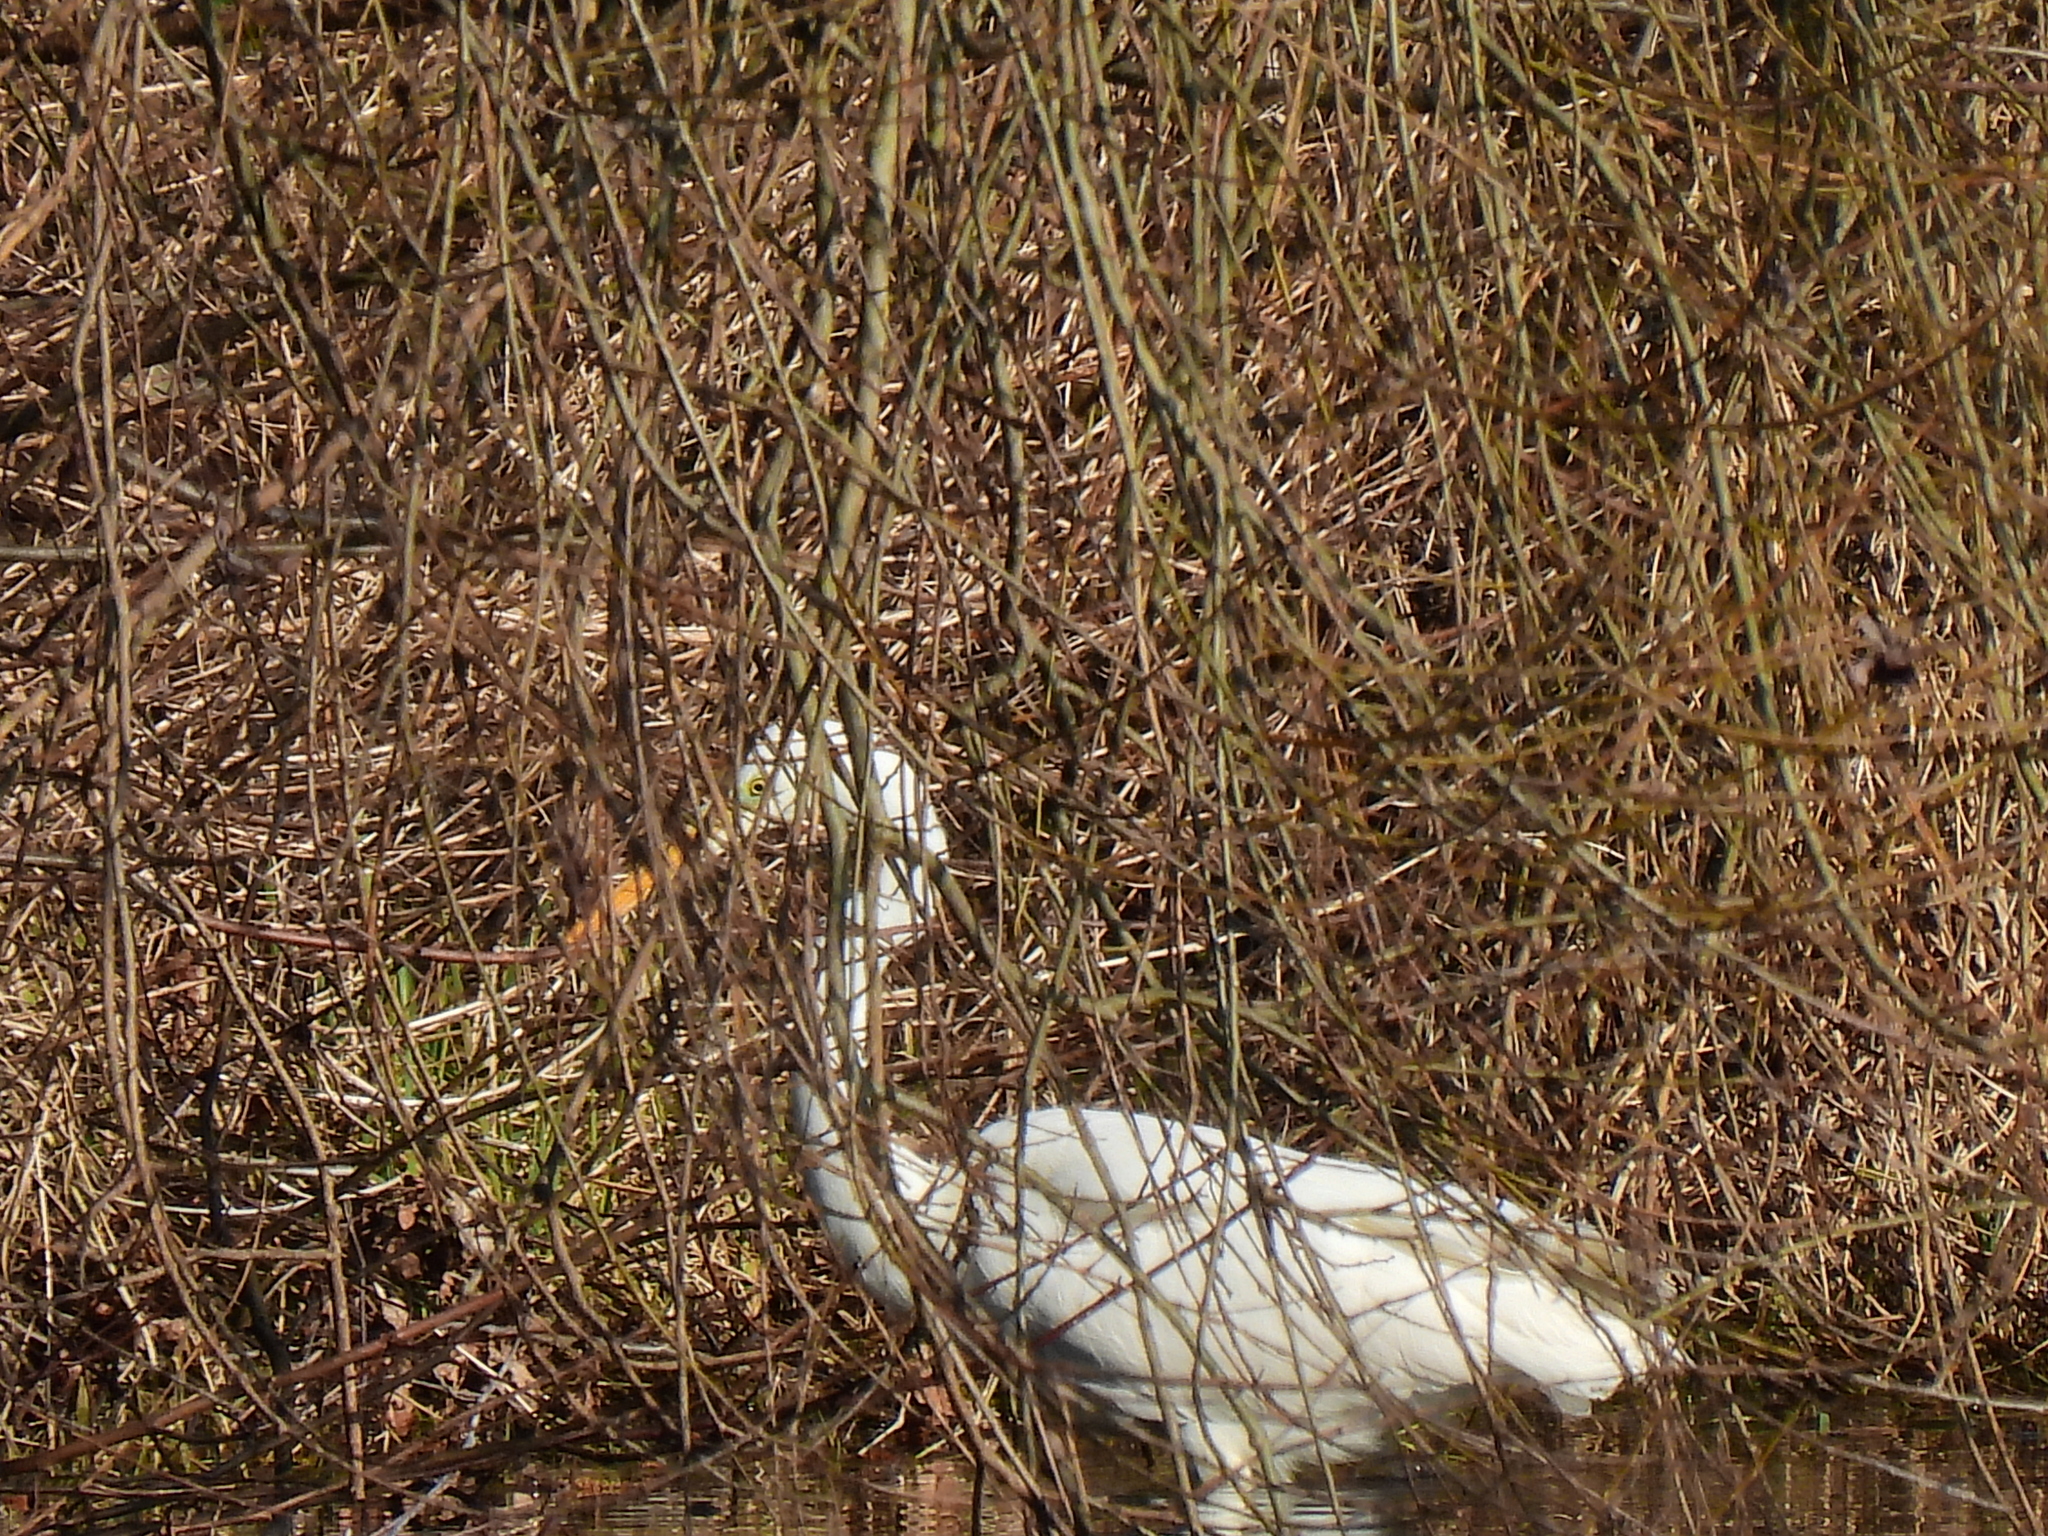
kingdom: Animalia
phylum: Chordata
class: Aves
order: Pelecaniformes
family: Ardeidae
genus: Ardea
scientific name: Ardea alba
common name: Great egret
